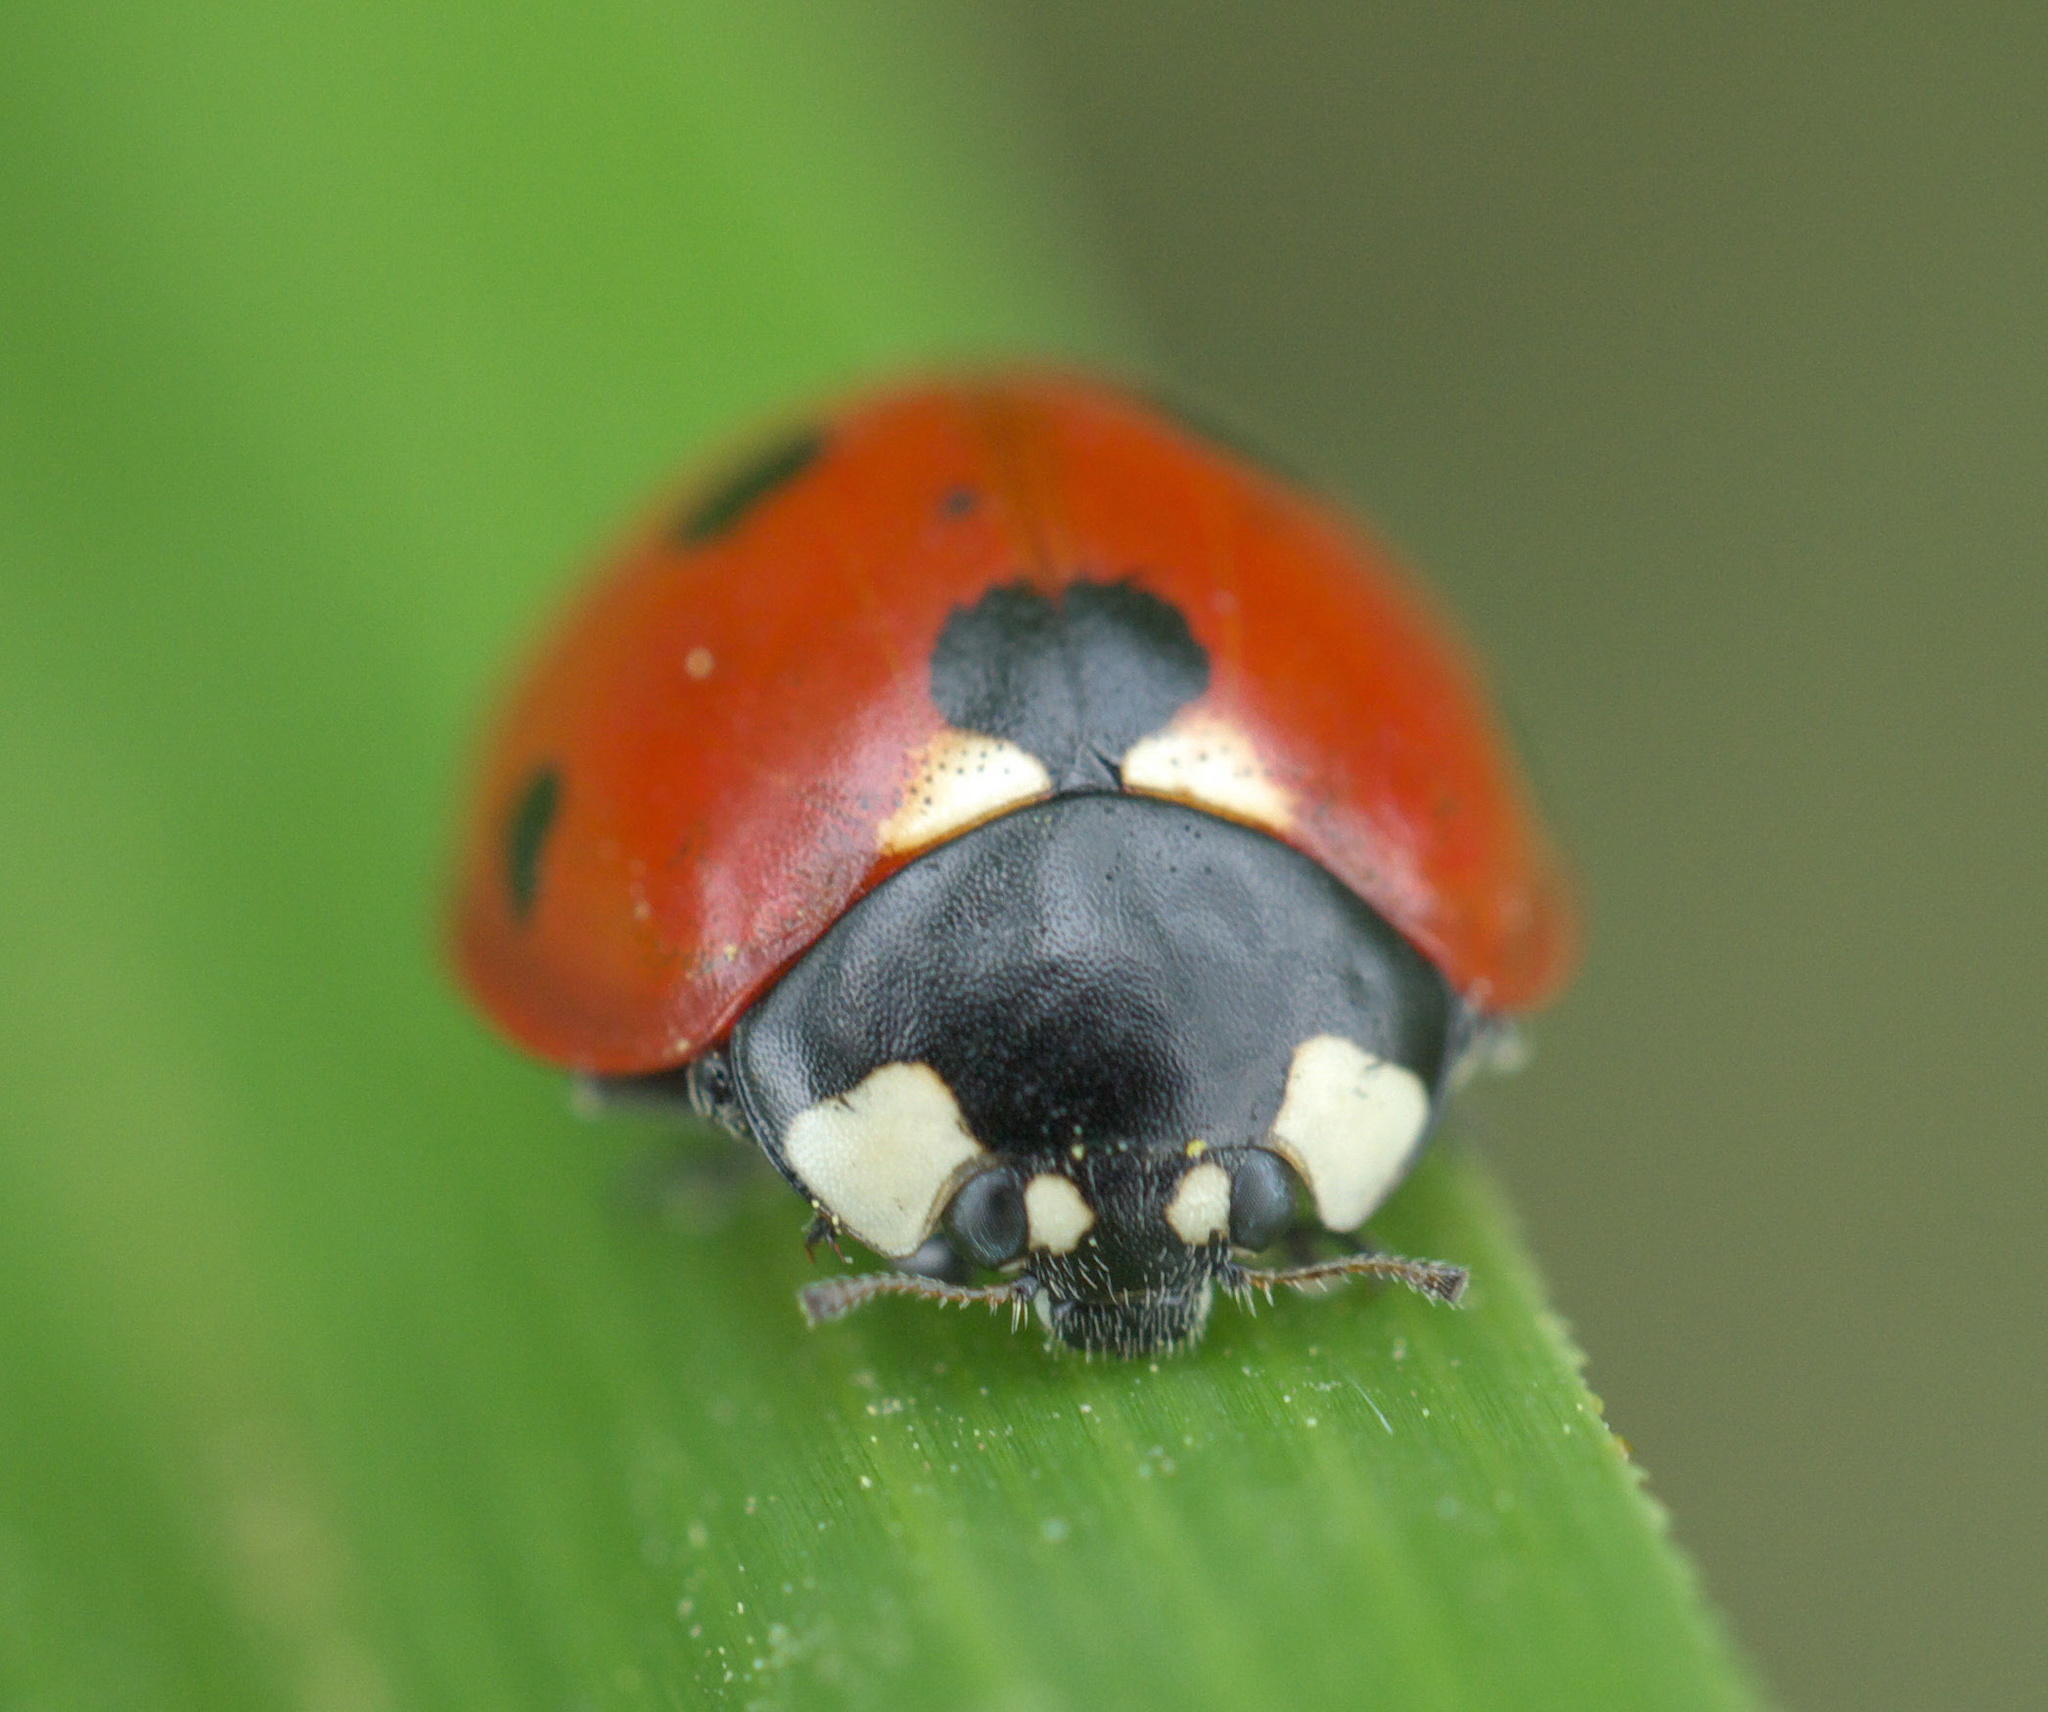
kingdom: Animalia
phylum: Arthropoda
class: Insecta
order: Coleoptera
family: Coccinellidae
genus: Coccinella
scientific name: Coccinella septempunctata
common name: Sevenspotted lady beetle
